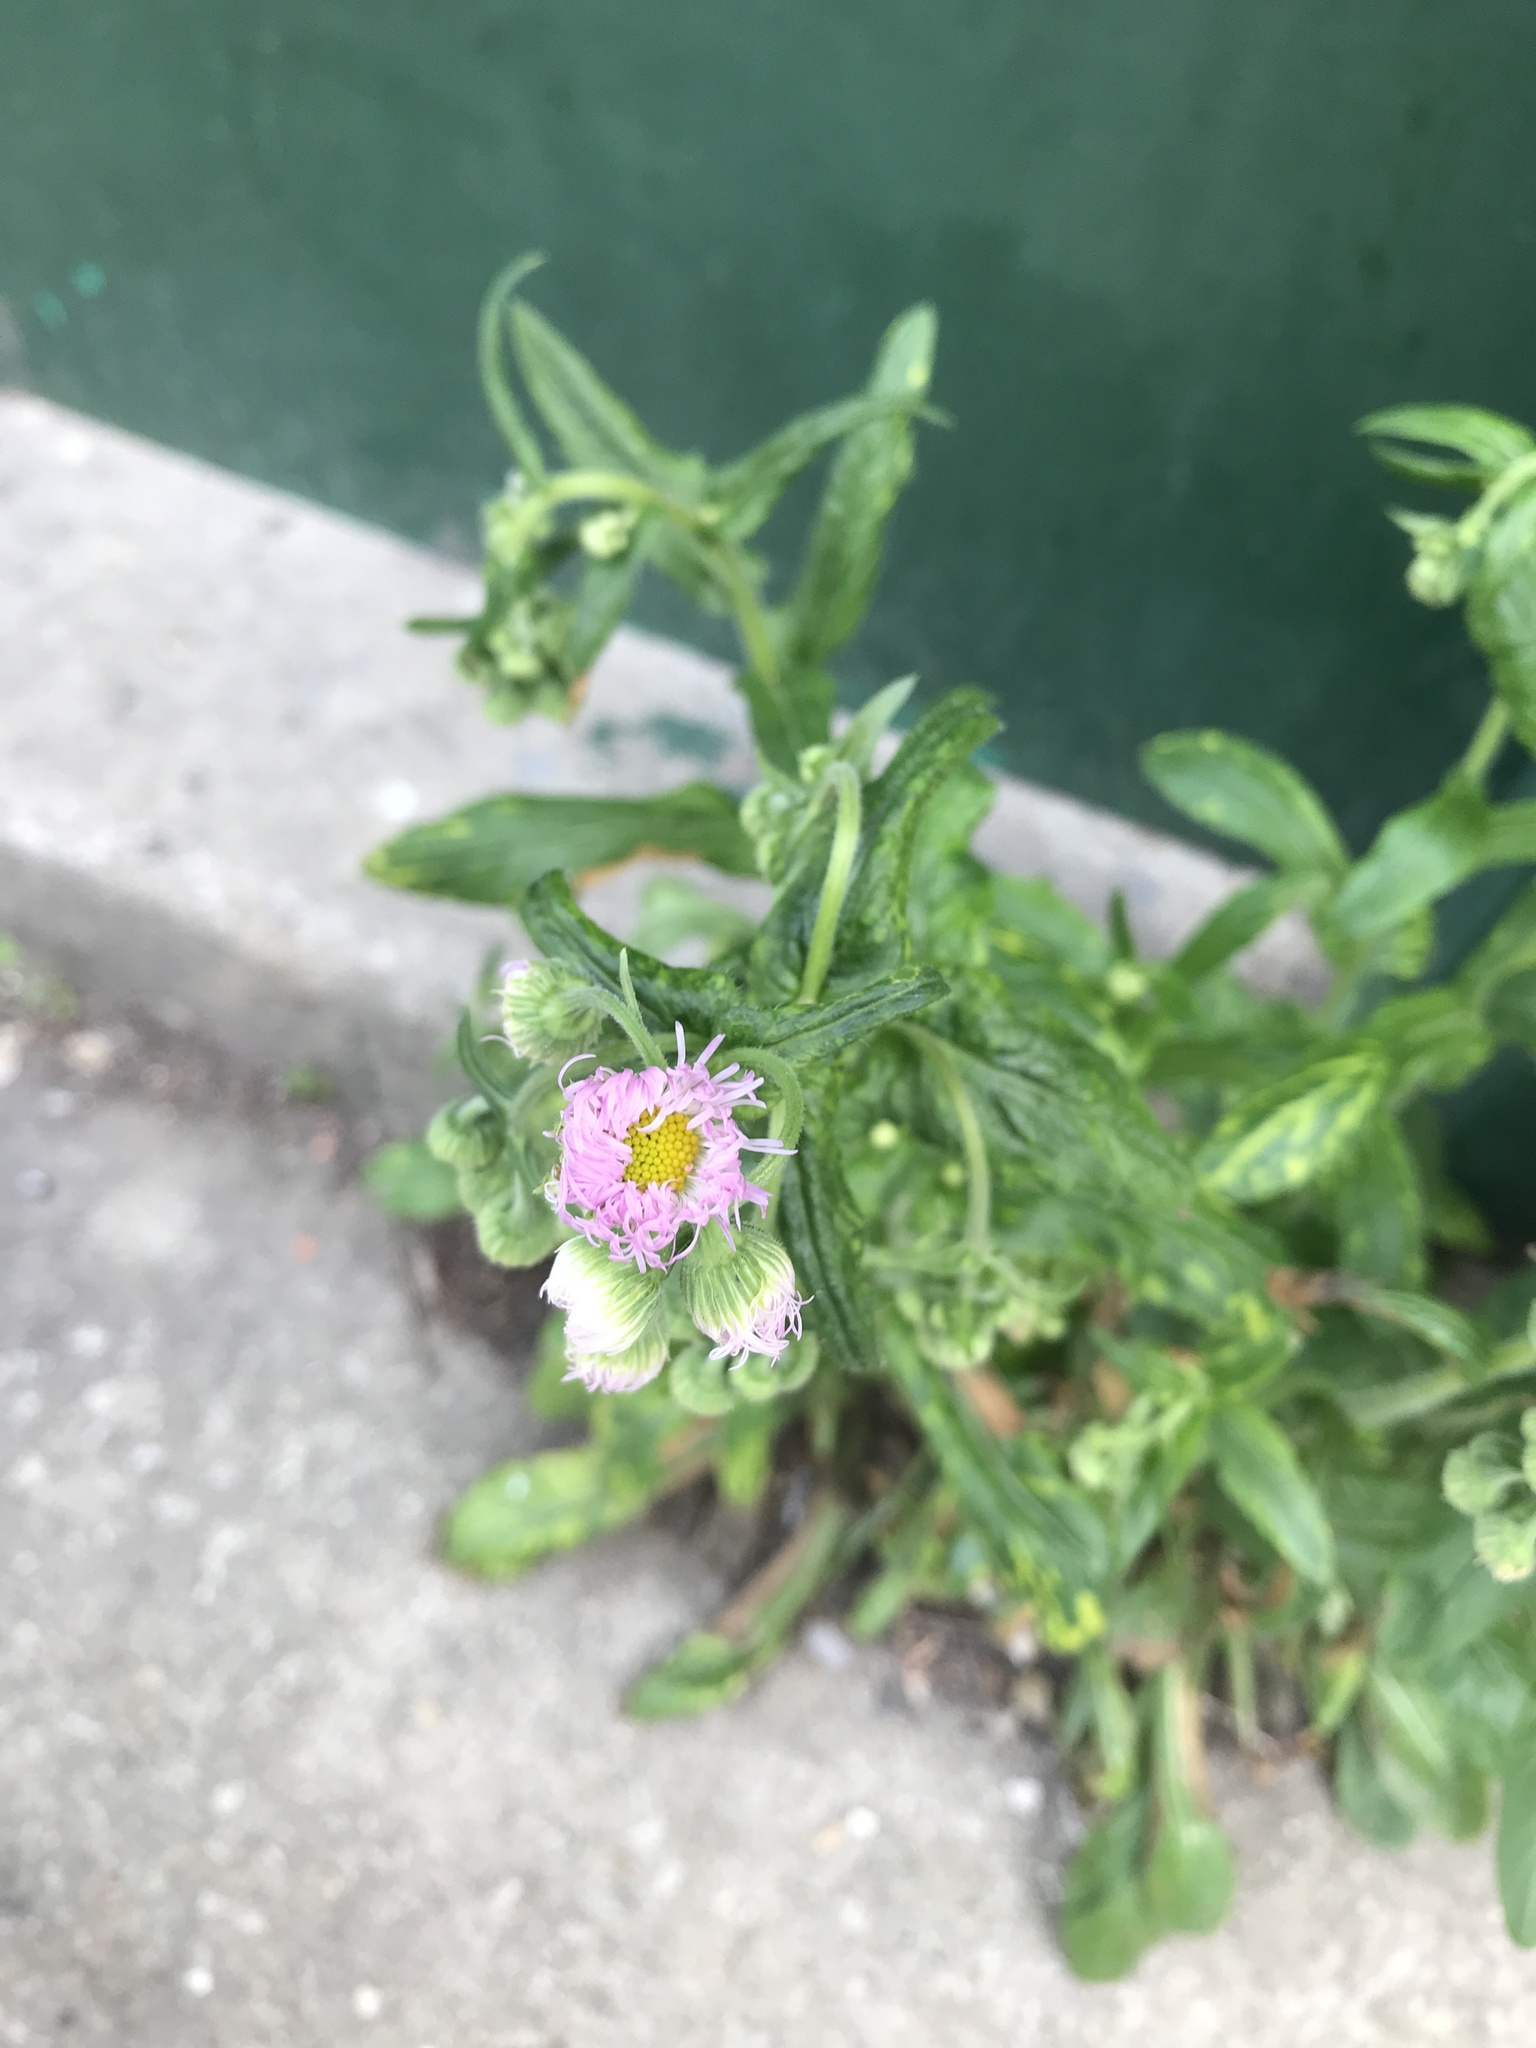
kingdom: Plantae
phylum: Tracheophyta
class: Magnoliopsida
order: Asterales
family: Asteraceae
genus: Erigeron
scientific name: Erigeron philadelphicus
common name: Robin's-plantain
